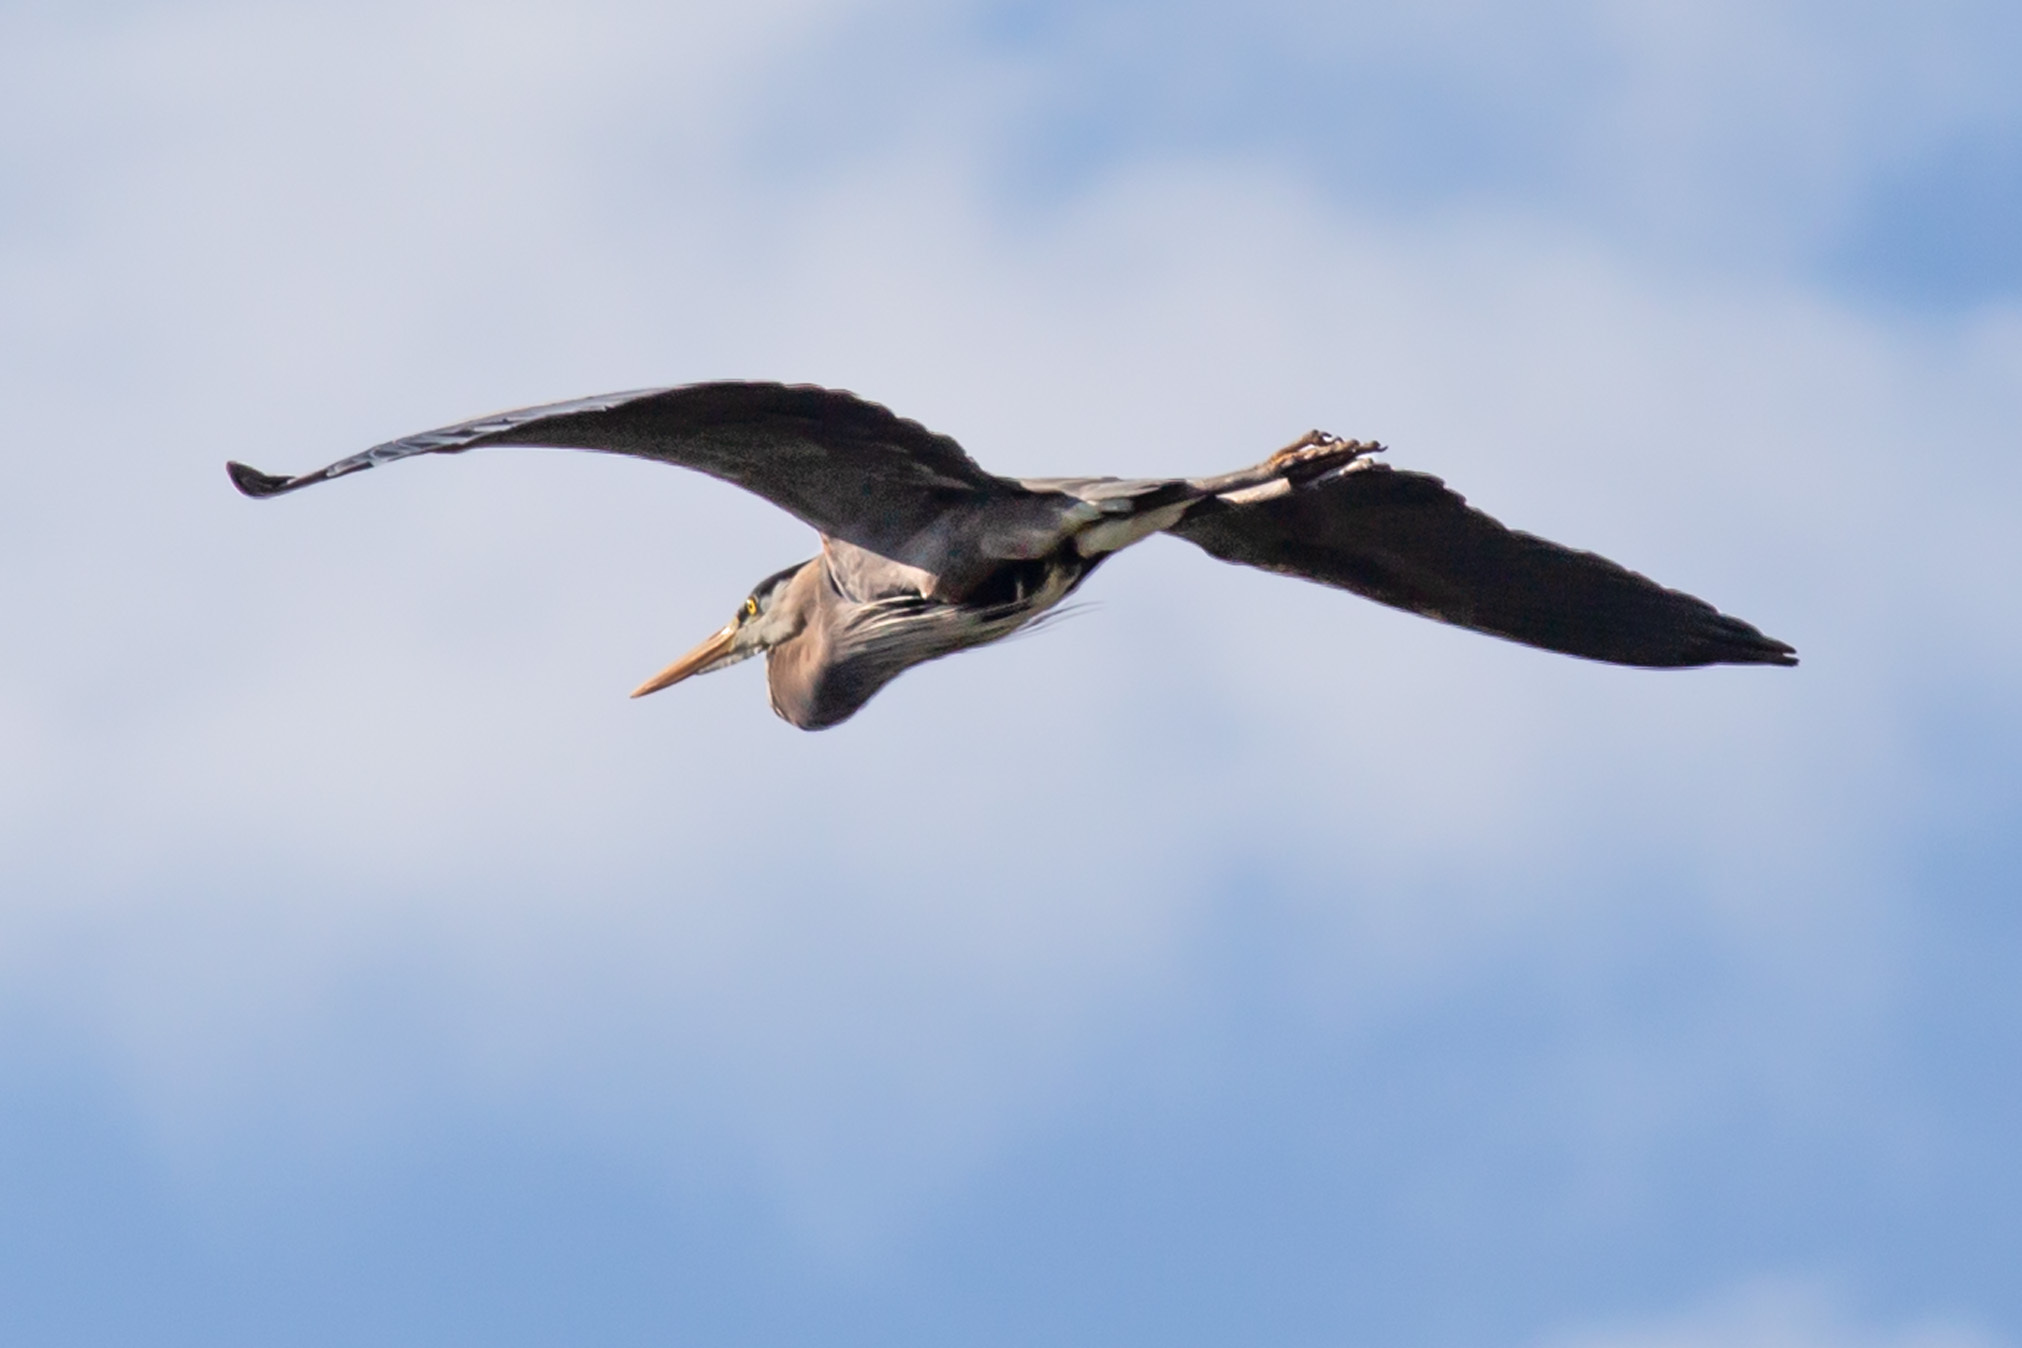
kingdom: Animalia
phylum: Chordata
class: Aves
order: Pelecaniformes
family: Ardeidae
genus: Ardea
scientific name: Ardea herodias
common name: Great blue heron
